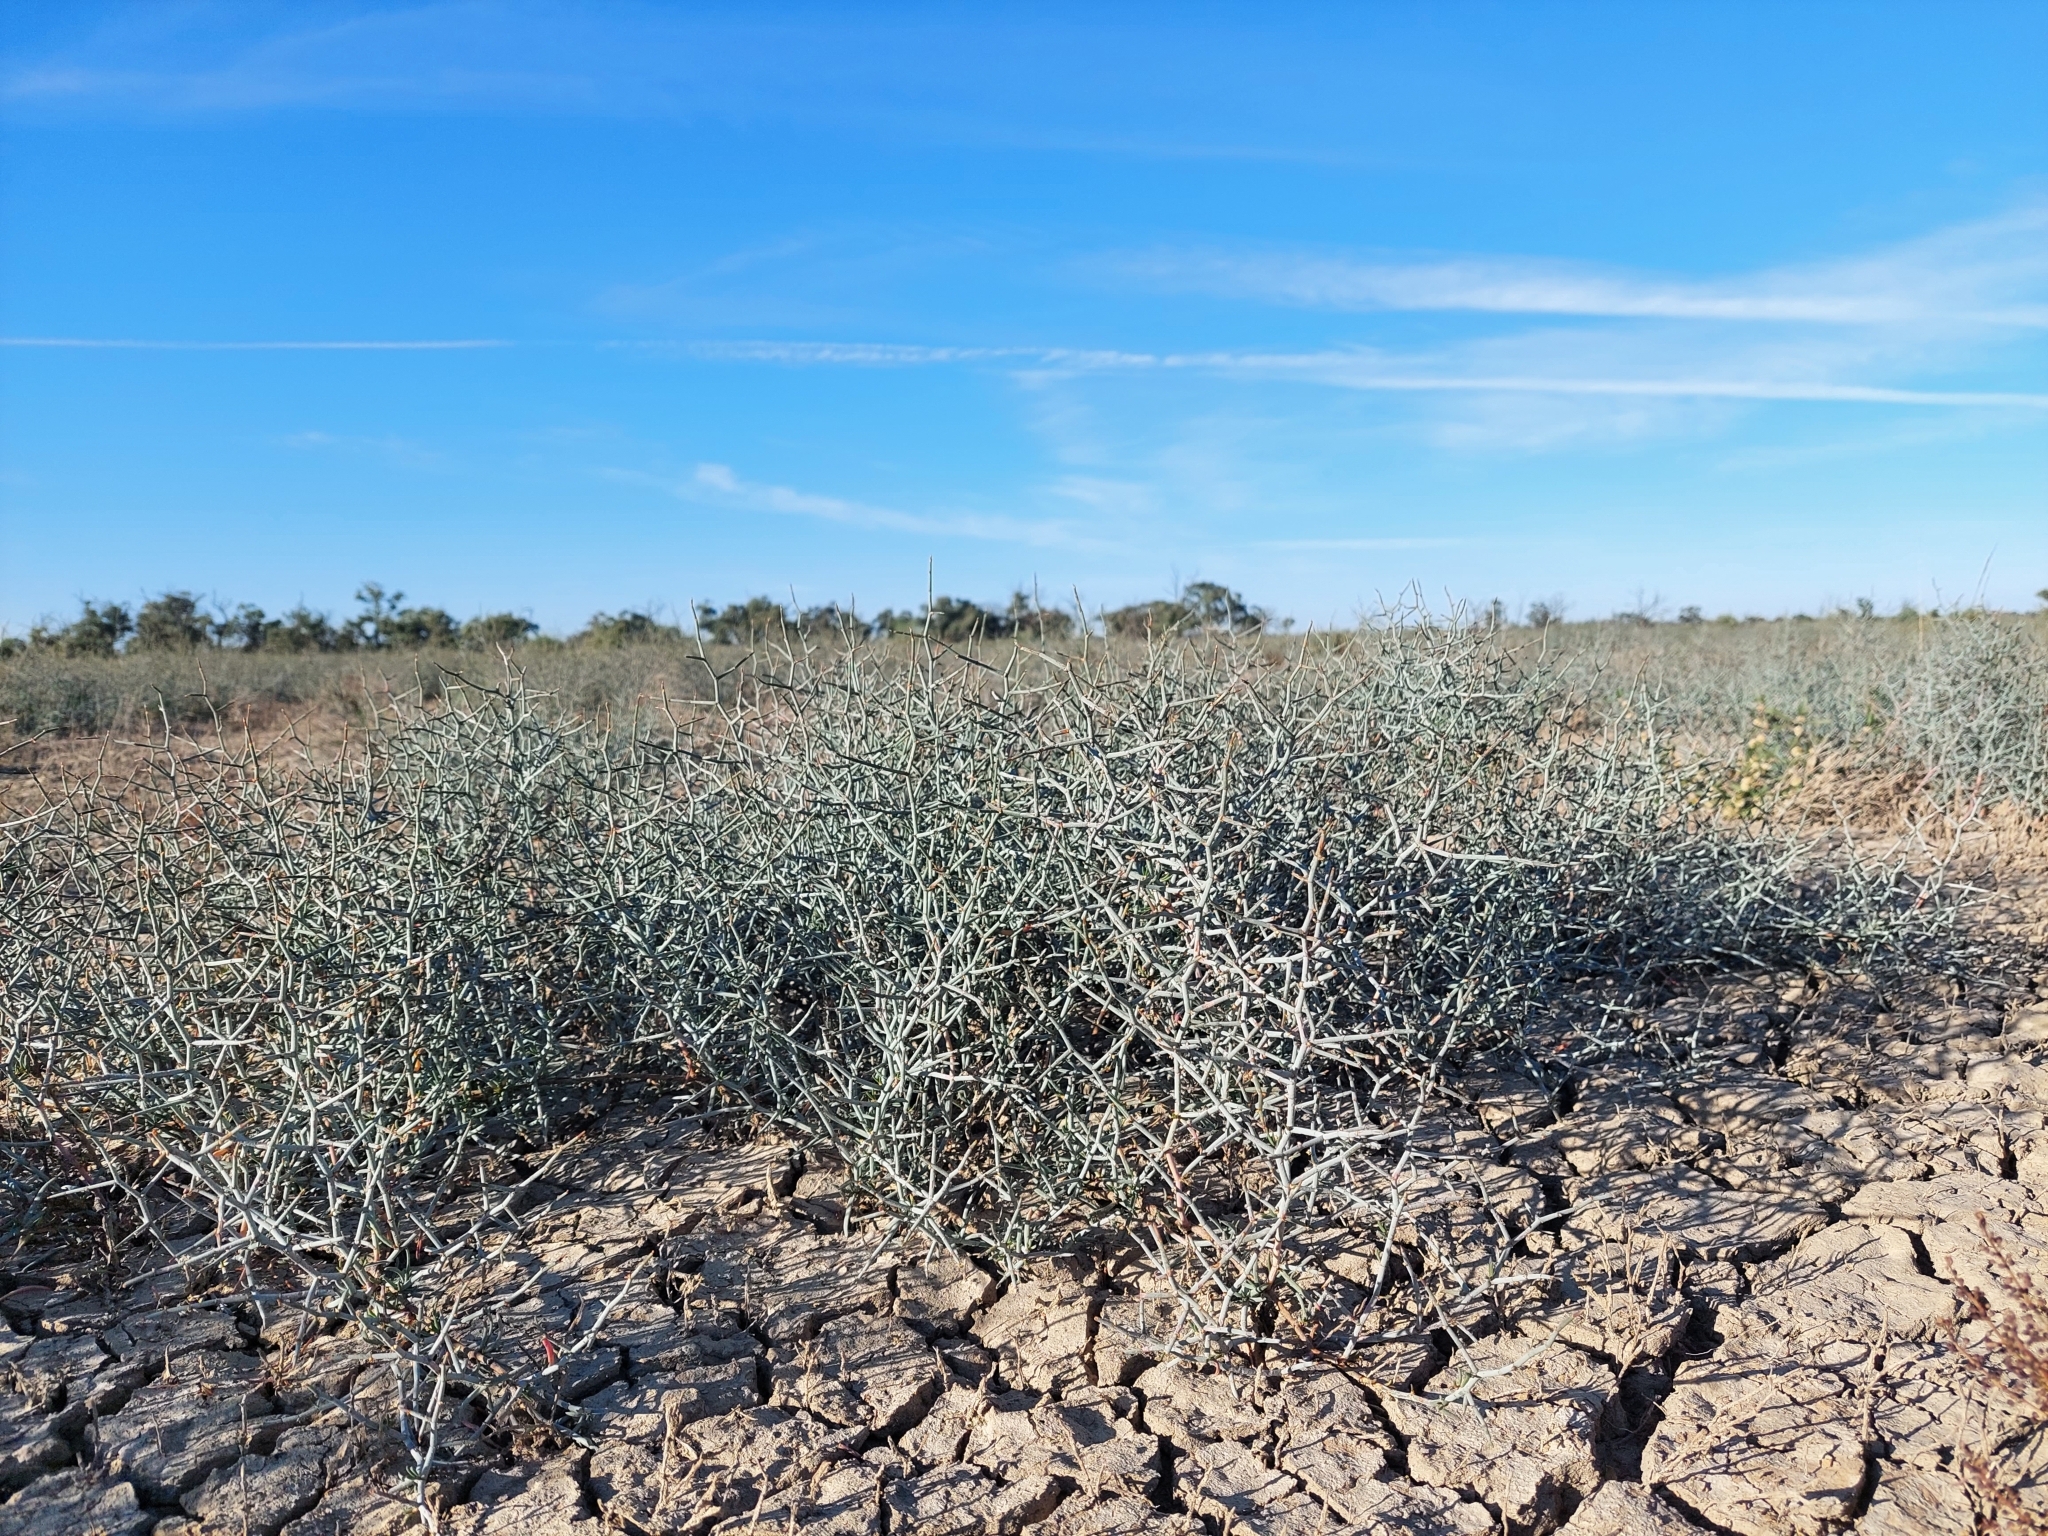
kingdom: Plantae
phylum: Tracheophyta
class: Magnoliopsida
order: Caryophyllales
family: Polygonaceae
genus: Duma
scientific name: Duma horrida
